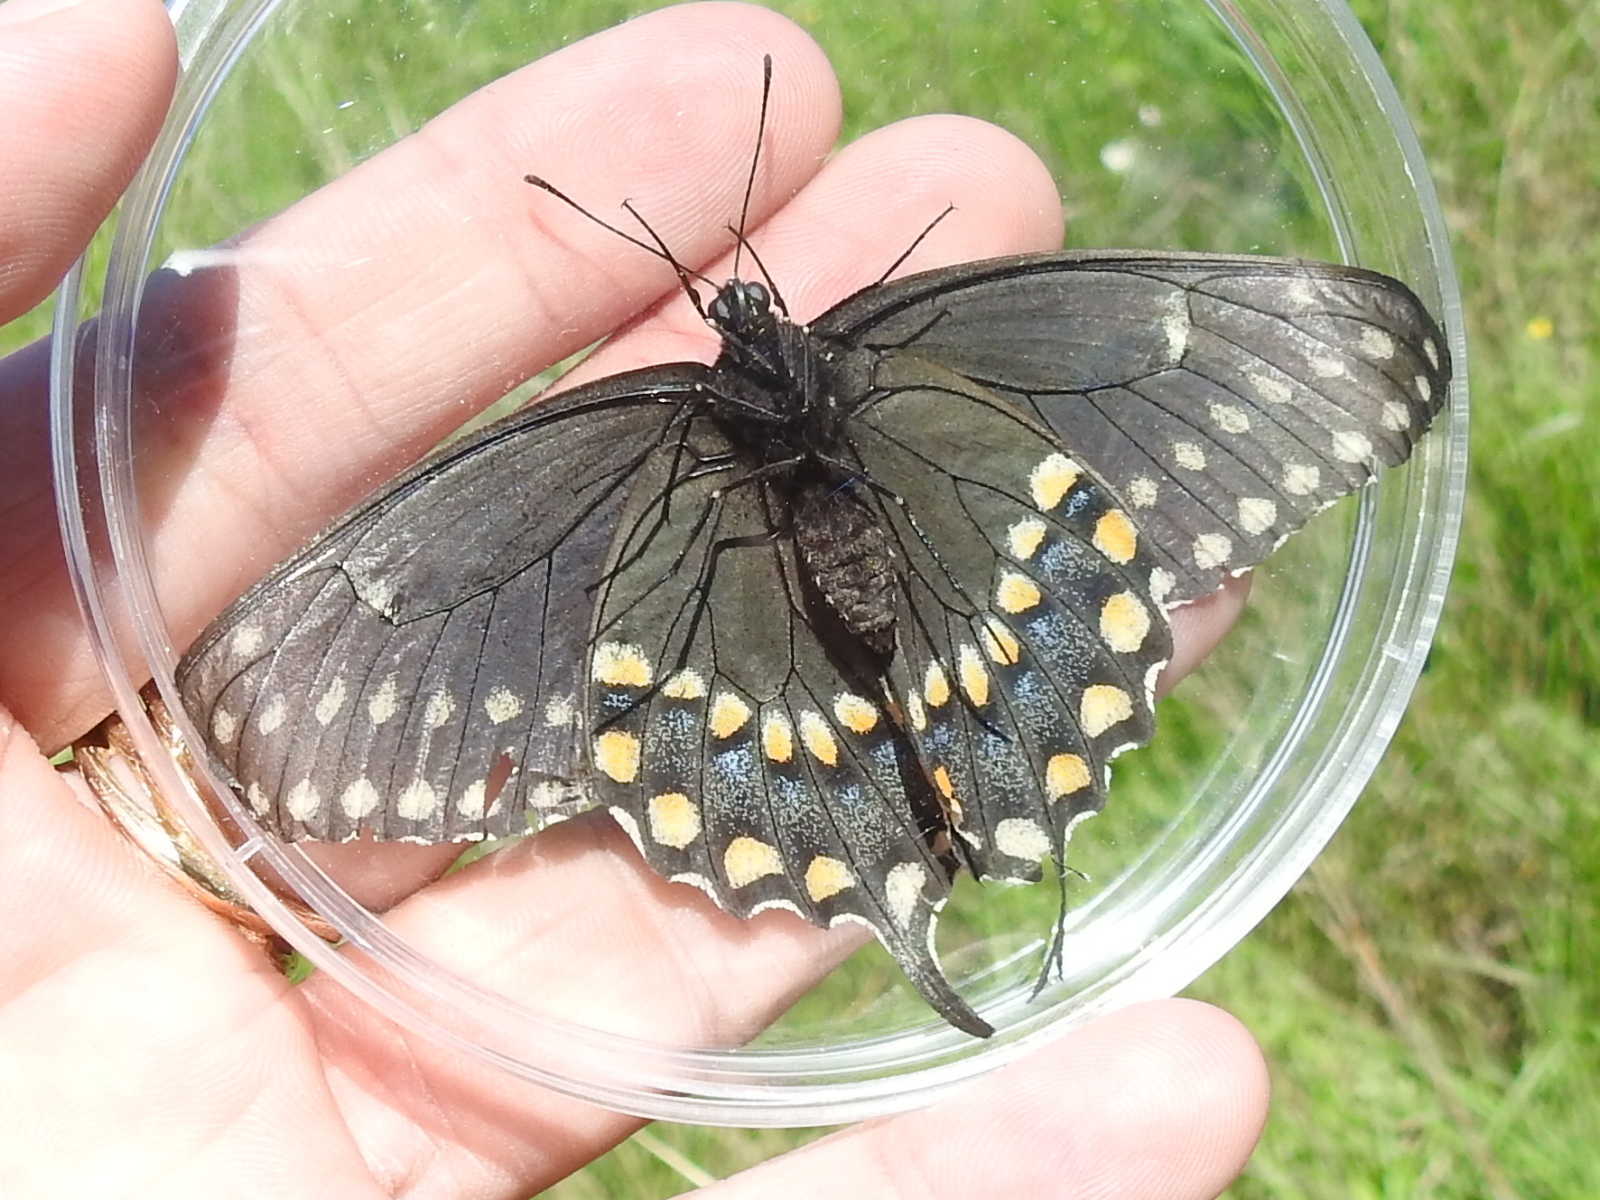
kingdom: Animalia
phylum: Arthropoda
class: Insecta
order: Lepidoptera
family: Papilionidae
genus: Papilio
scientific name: Papilio polyxenes
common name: Black swallowtail
